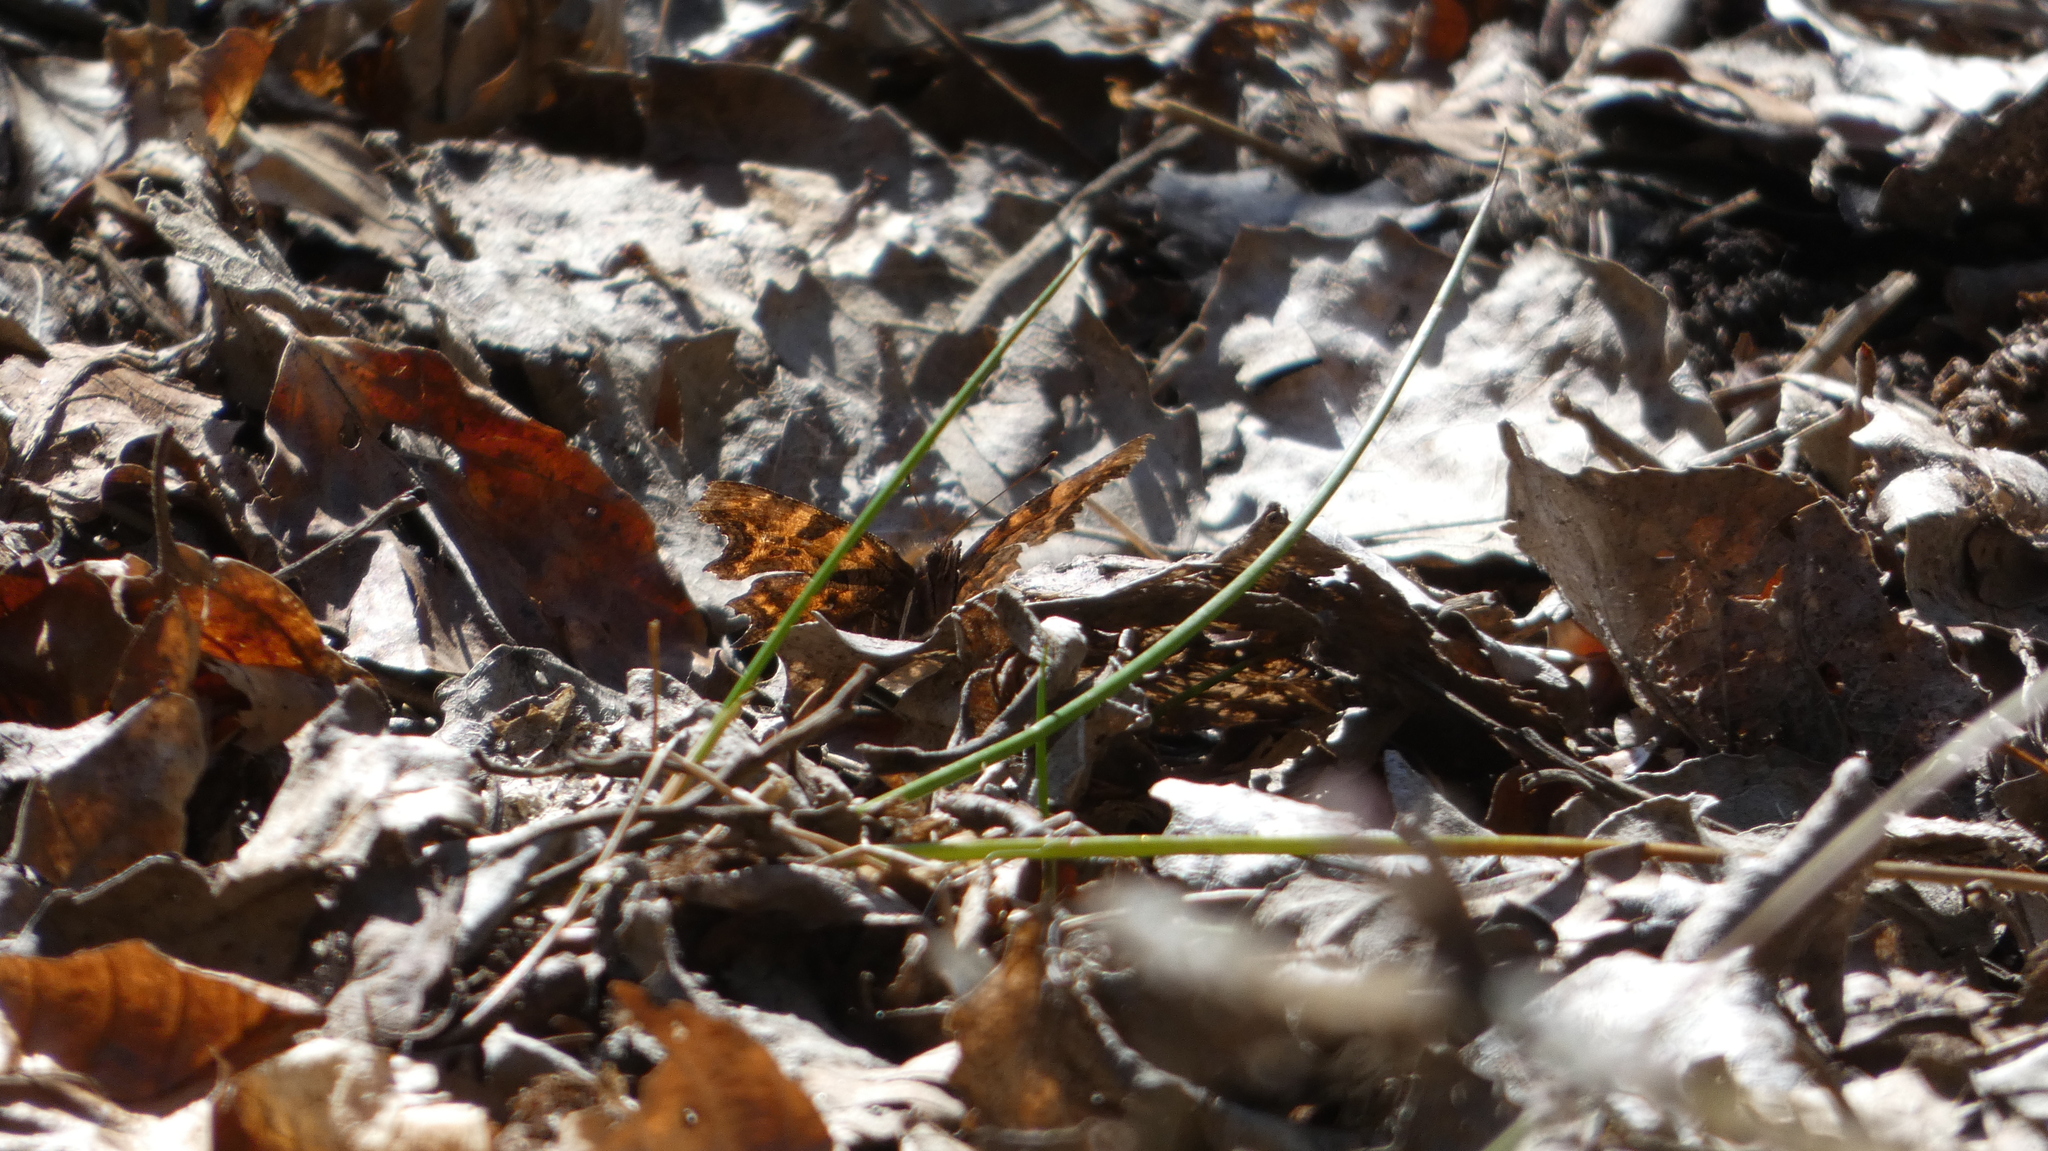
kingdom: Animalia
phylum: Arthropoda
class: Insecta
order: Lepidoptera
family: Nymphalidae
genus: Polygonia
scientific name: Polygonia c-album
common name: Comma
